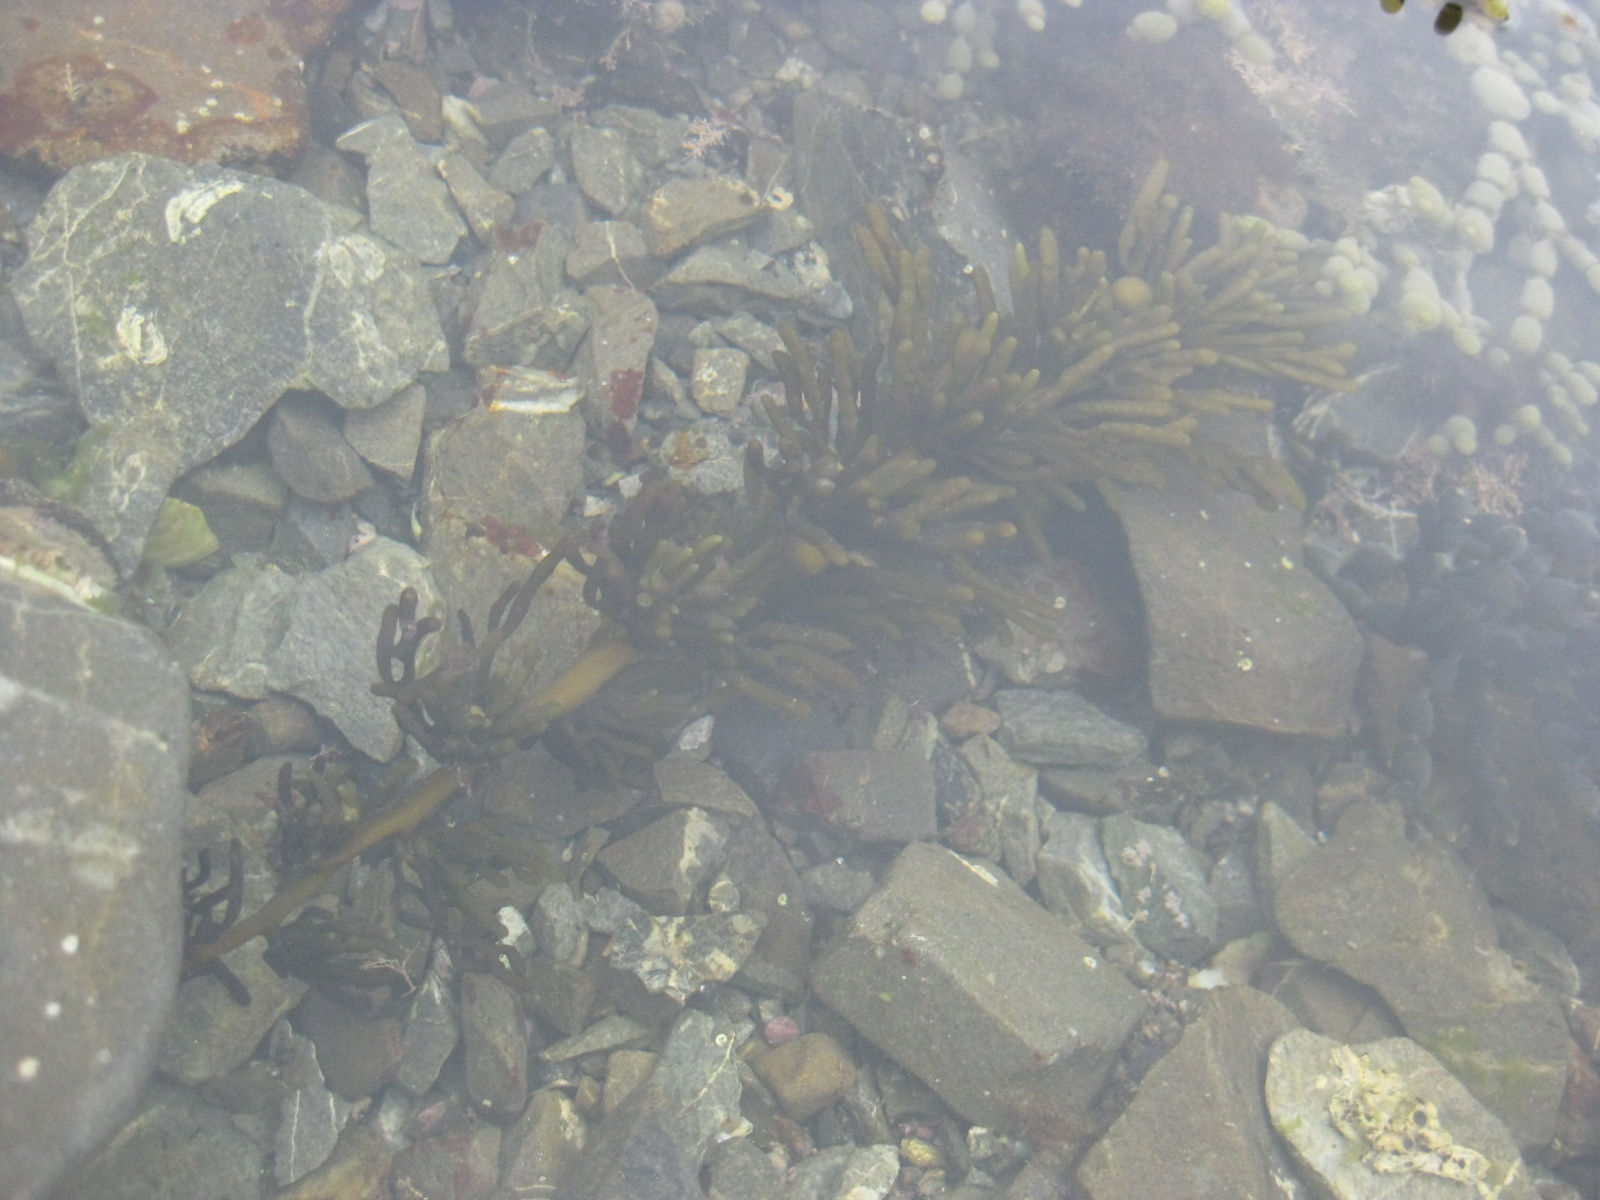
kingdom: Chromista
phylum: Ochrophyta
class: Phaeophyceae
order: Fucales
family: Sargassaceae
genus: Cystophora
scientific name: Cystophora torulosa
